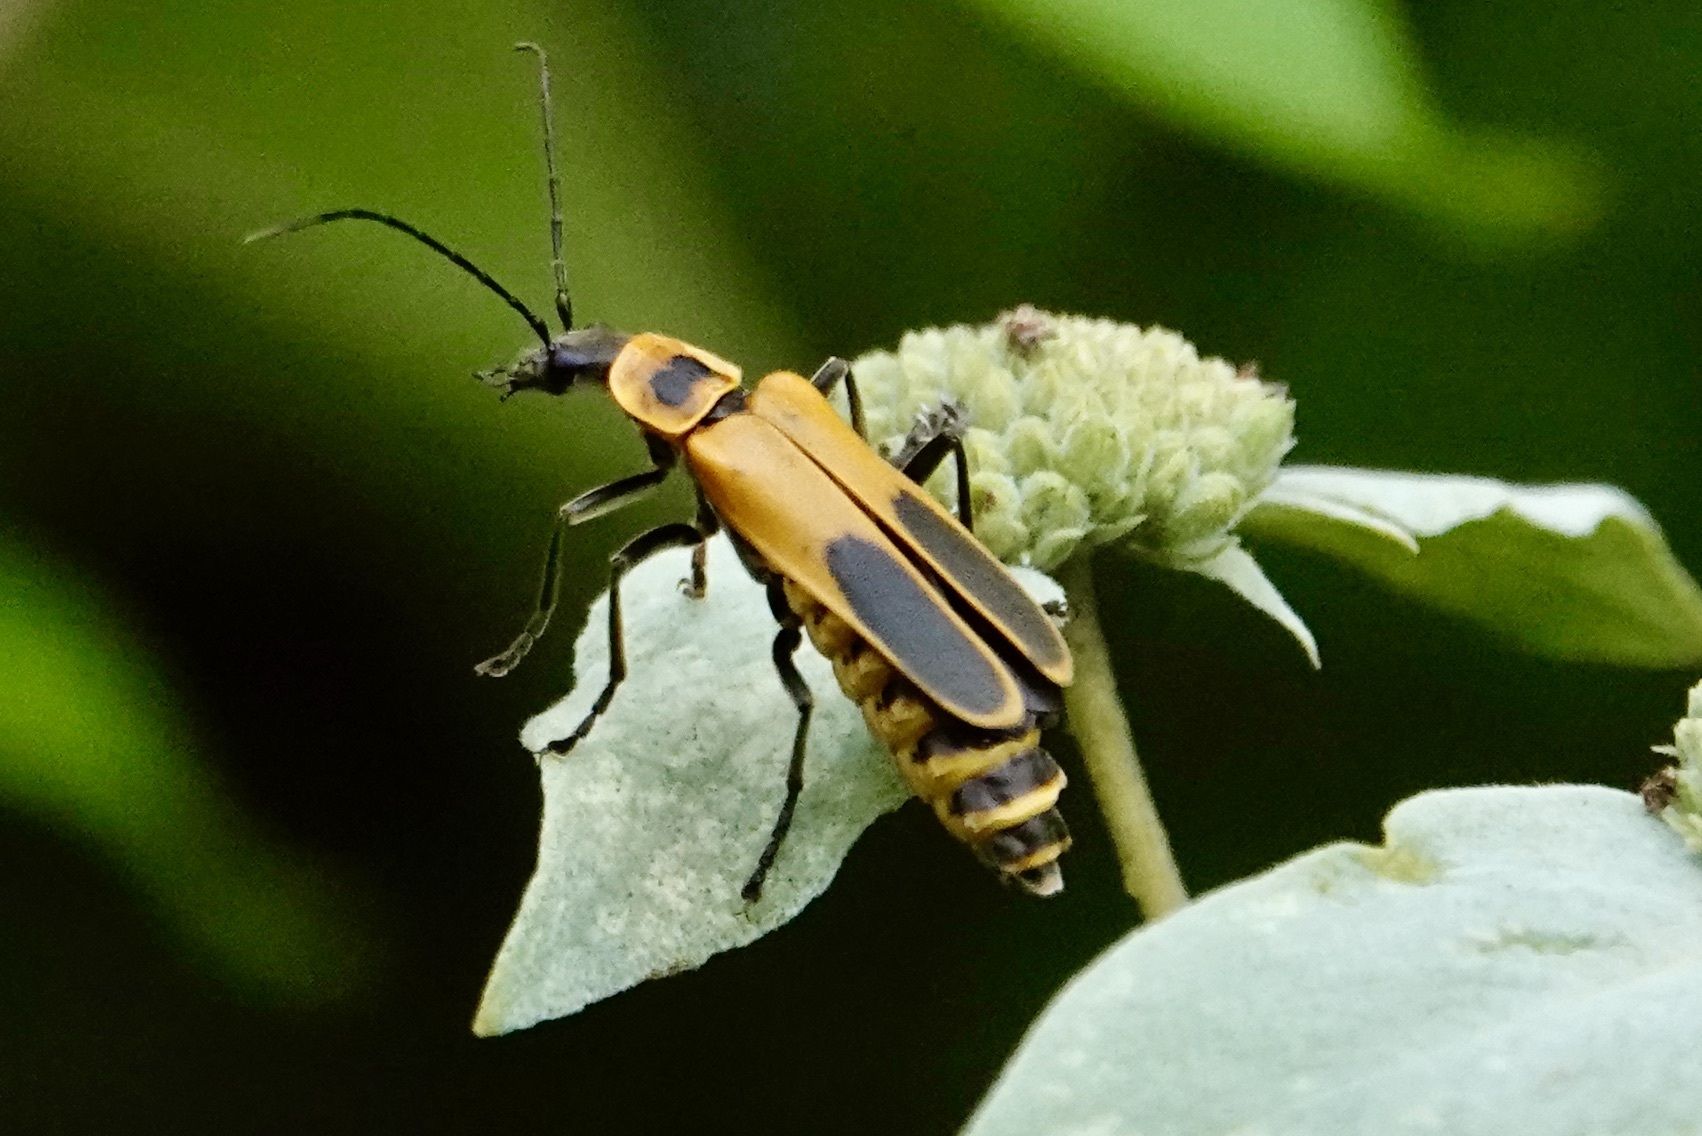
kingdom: Animalia
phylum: Arthropoda
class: Insecta
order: Coleoptera
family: Cantharidae
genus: Chauliognathus
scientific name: Chauliognathus pensylvanicus
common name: Goldenrod soldier beetle
